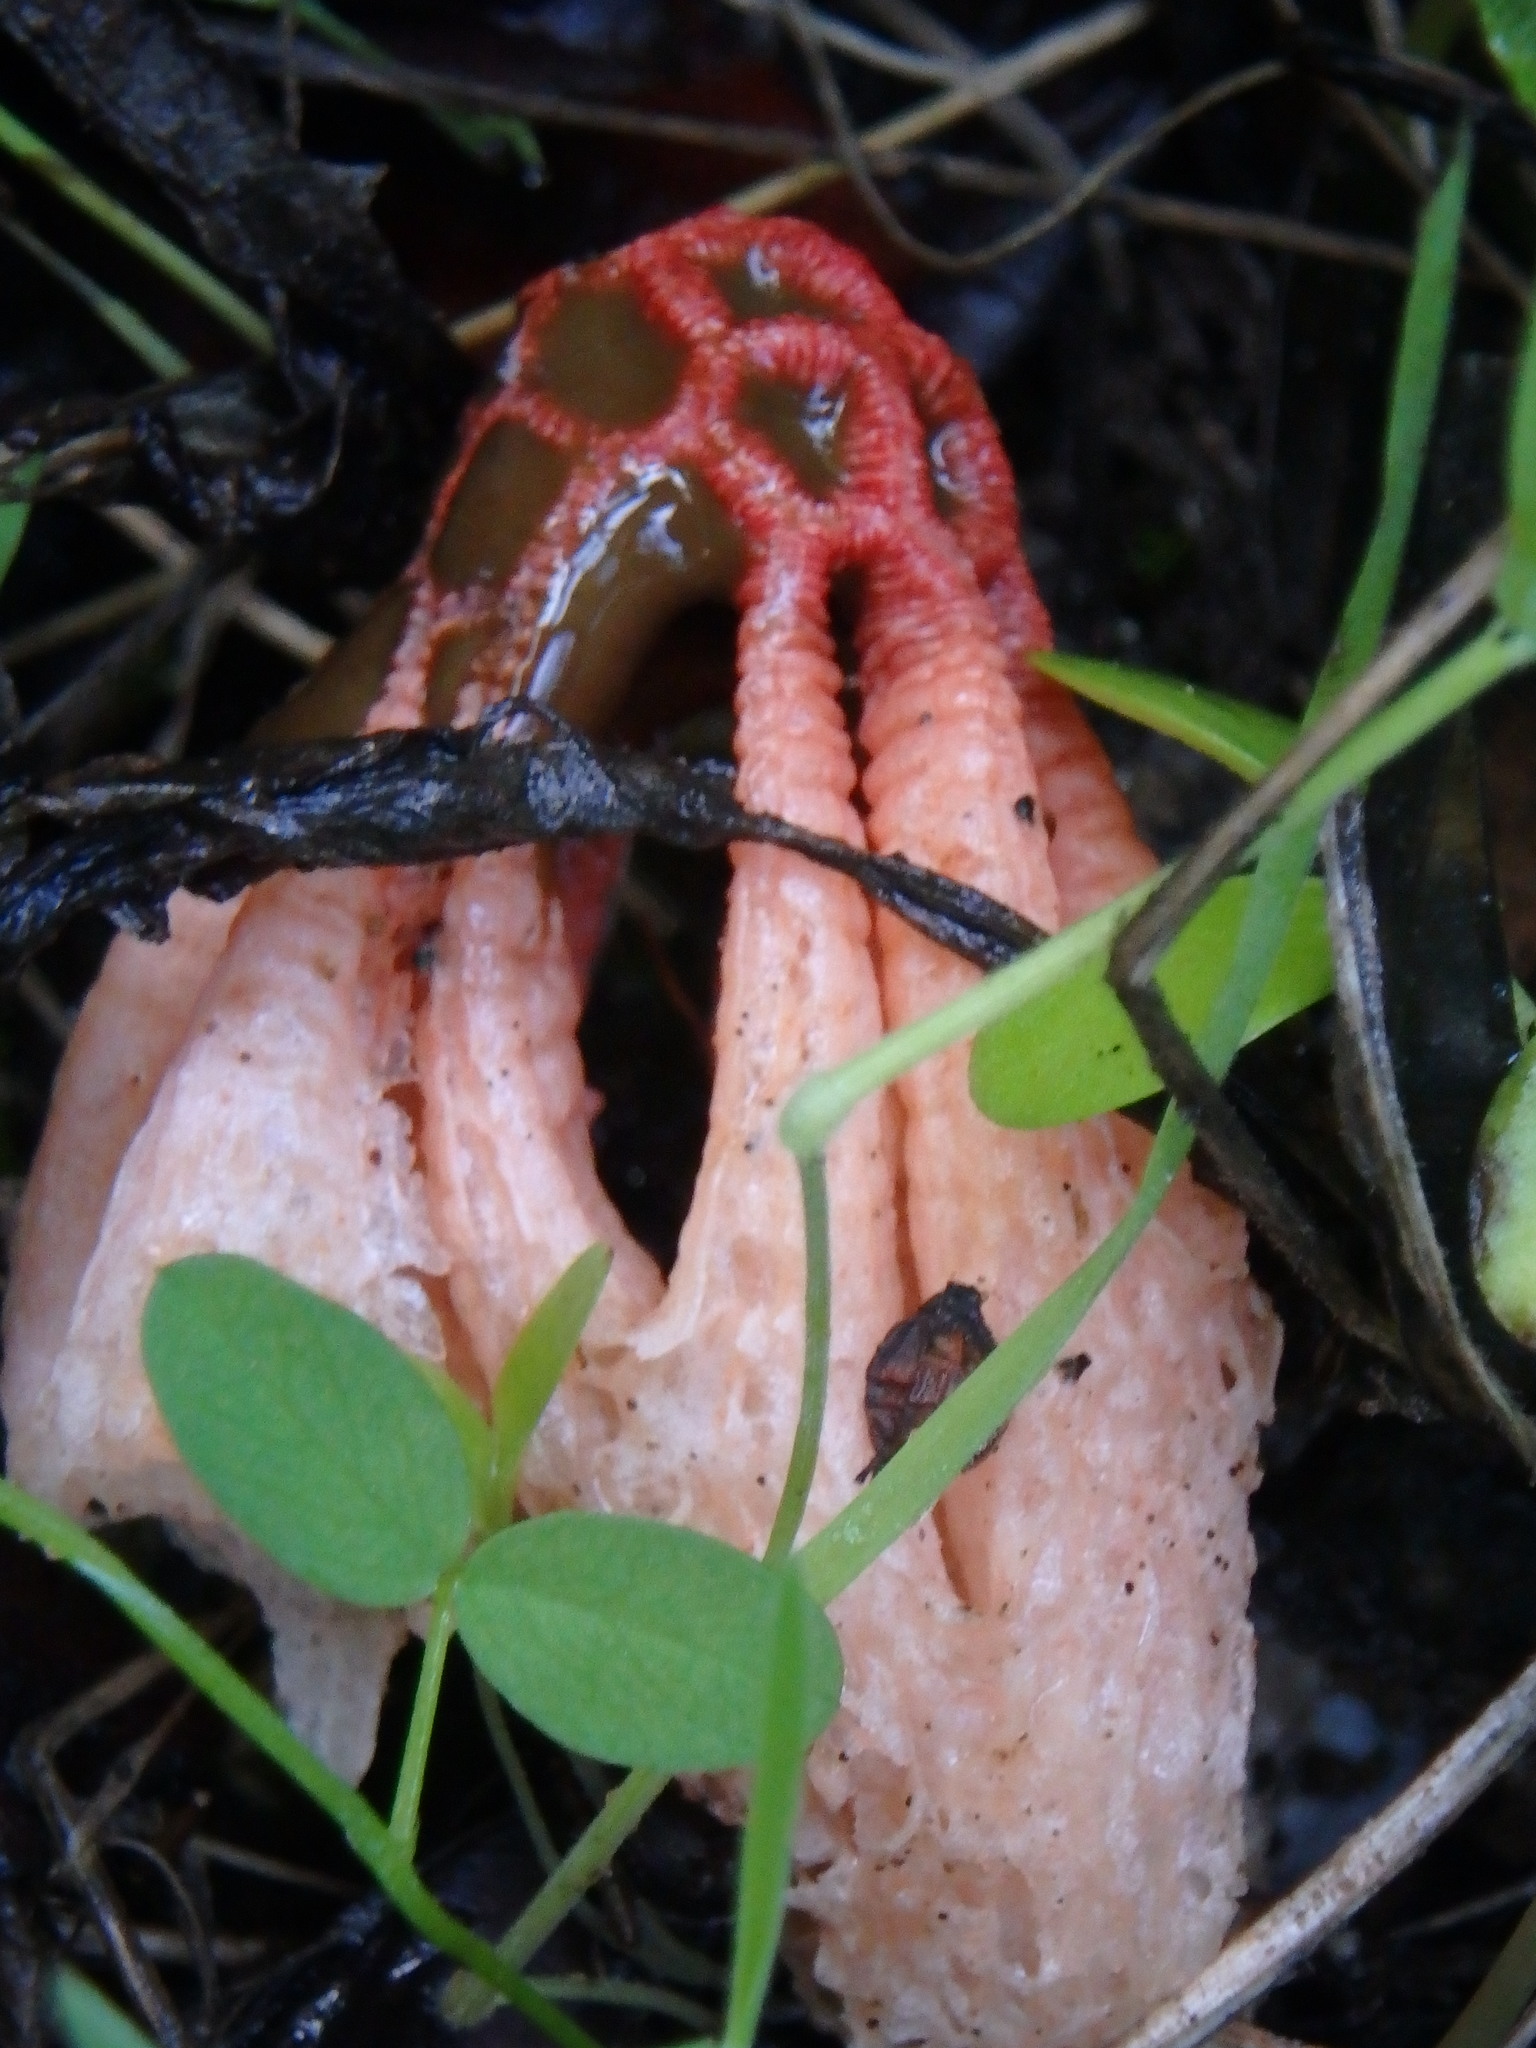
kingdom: Fungi
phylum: Basidiomycota
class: Agaricomycetes
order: Phallales
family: Phallaceae
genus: Colus
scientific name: Colus hirudinosus
